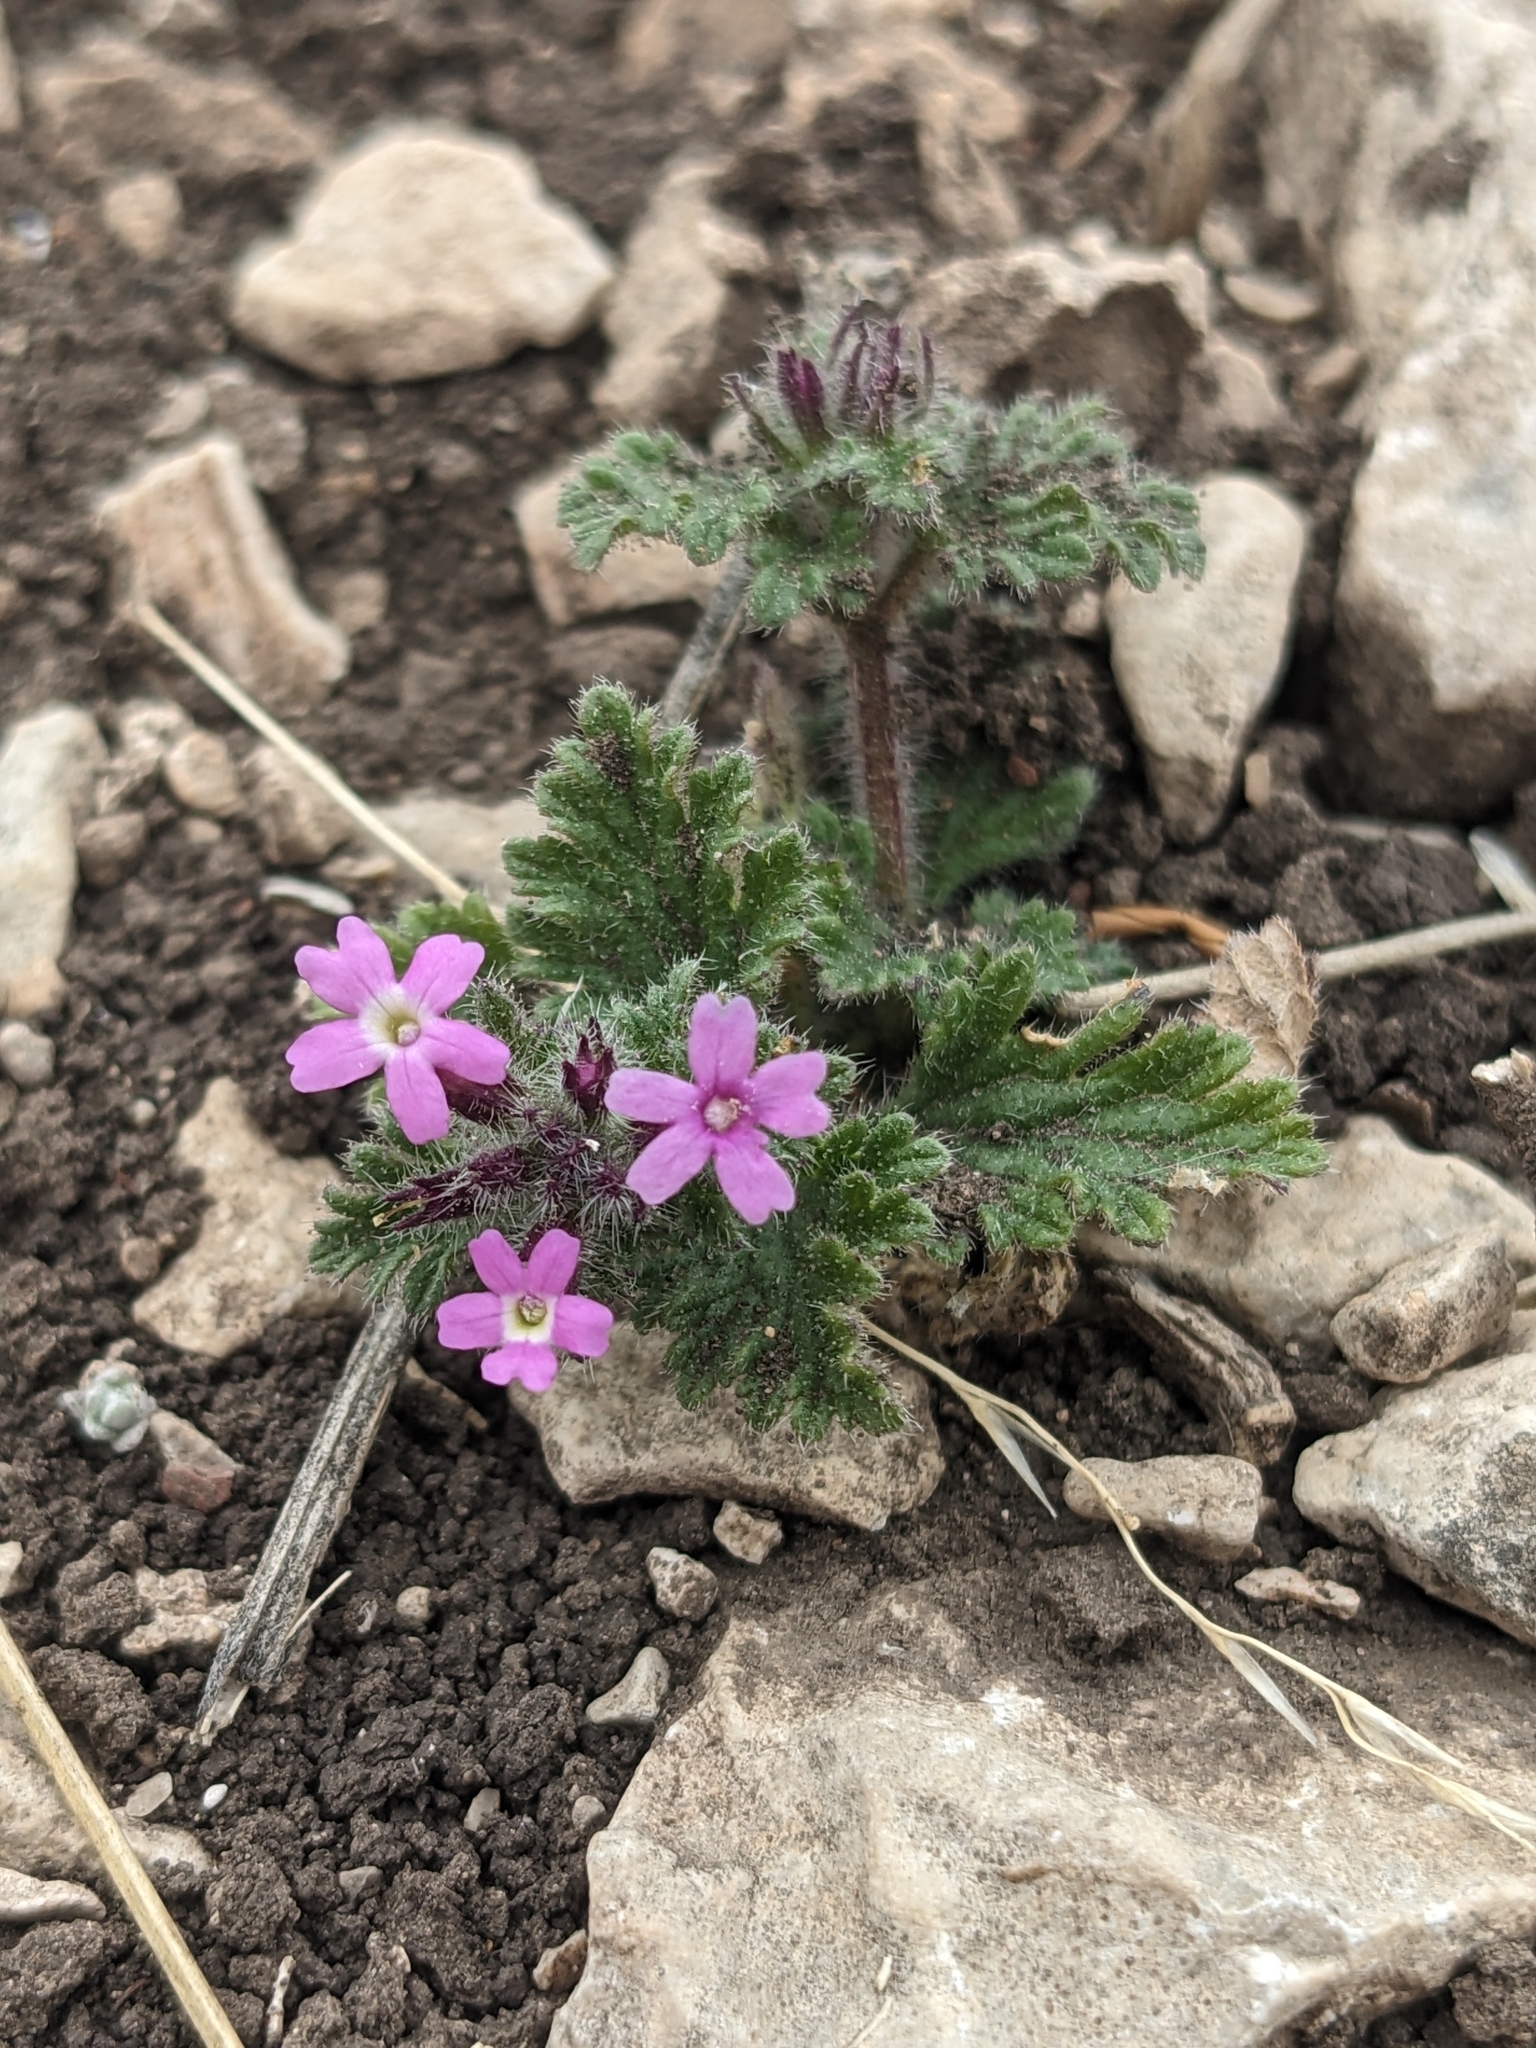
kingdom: Plantae
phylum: Tracheophyta
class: Magnoliopsida
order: Lamiales
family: Verbenaceae
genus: Verbena
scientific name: Verbena pumila
